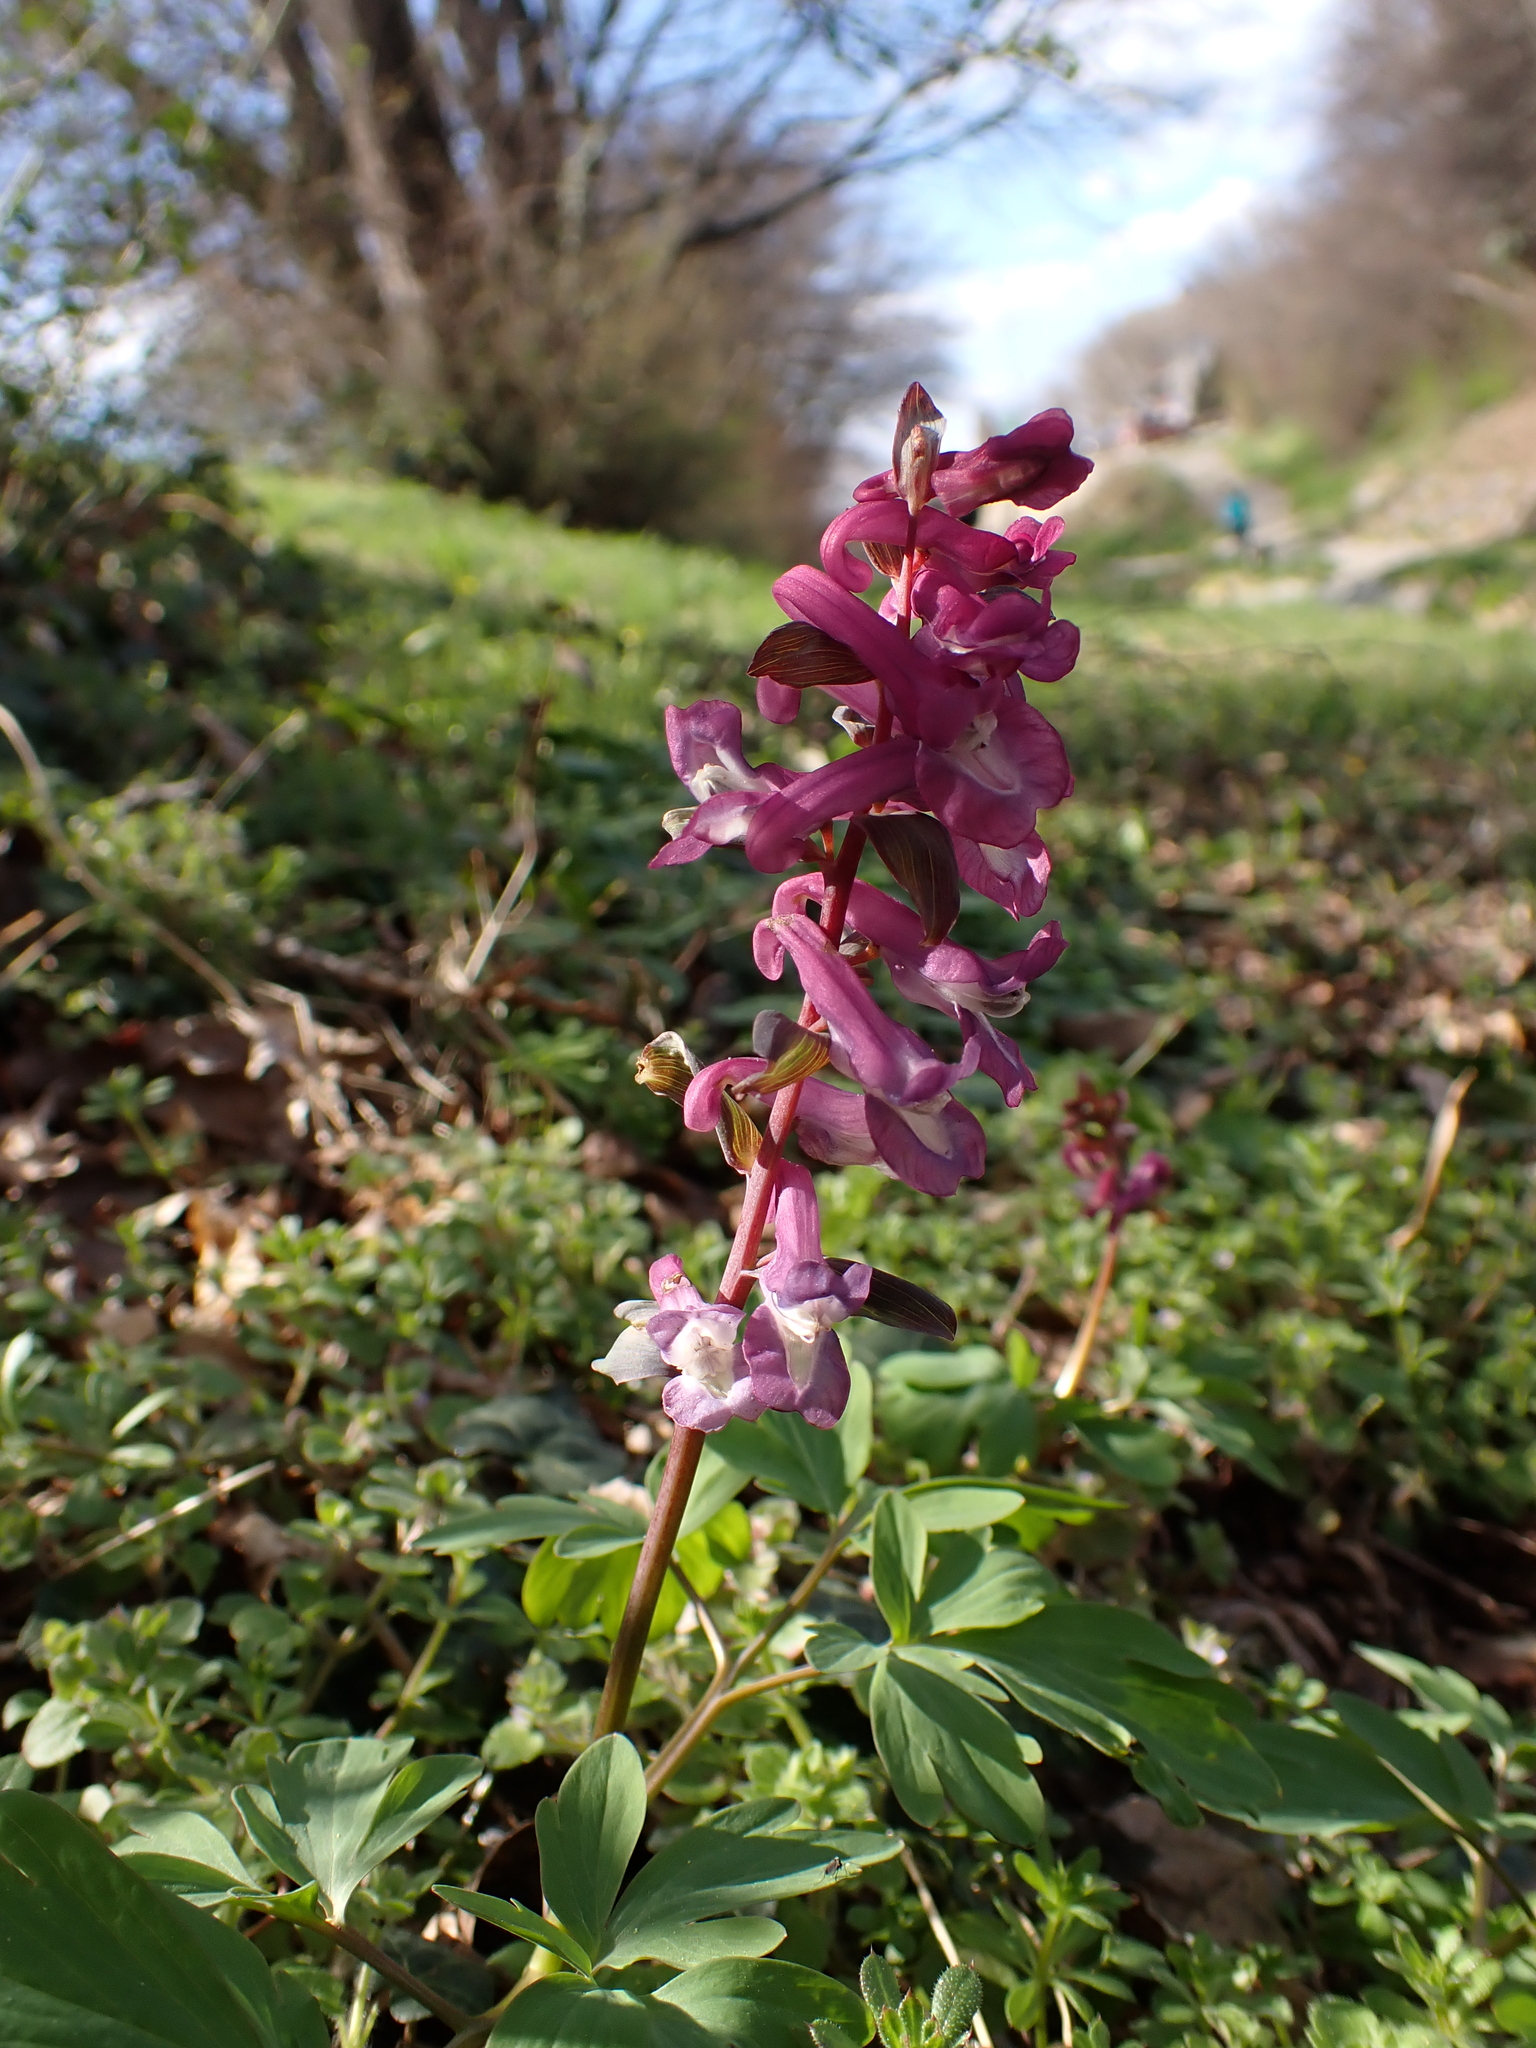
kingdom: Plantae
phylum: Tracheophyta
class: Magnoliopsida
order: Ranunculales
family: Papaveraceae
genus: Corydalis
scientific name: Corydalis cava
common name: Hollowroot
